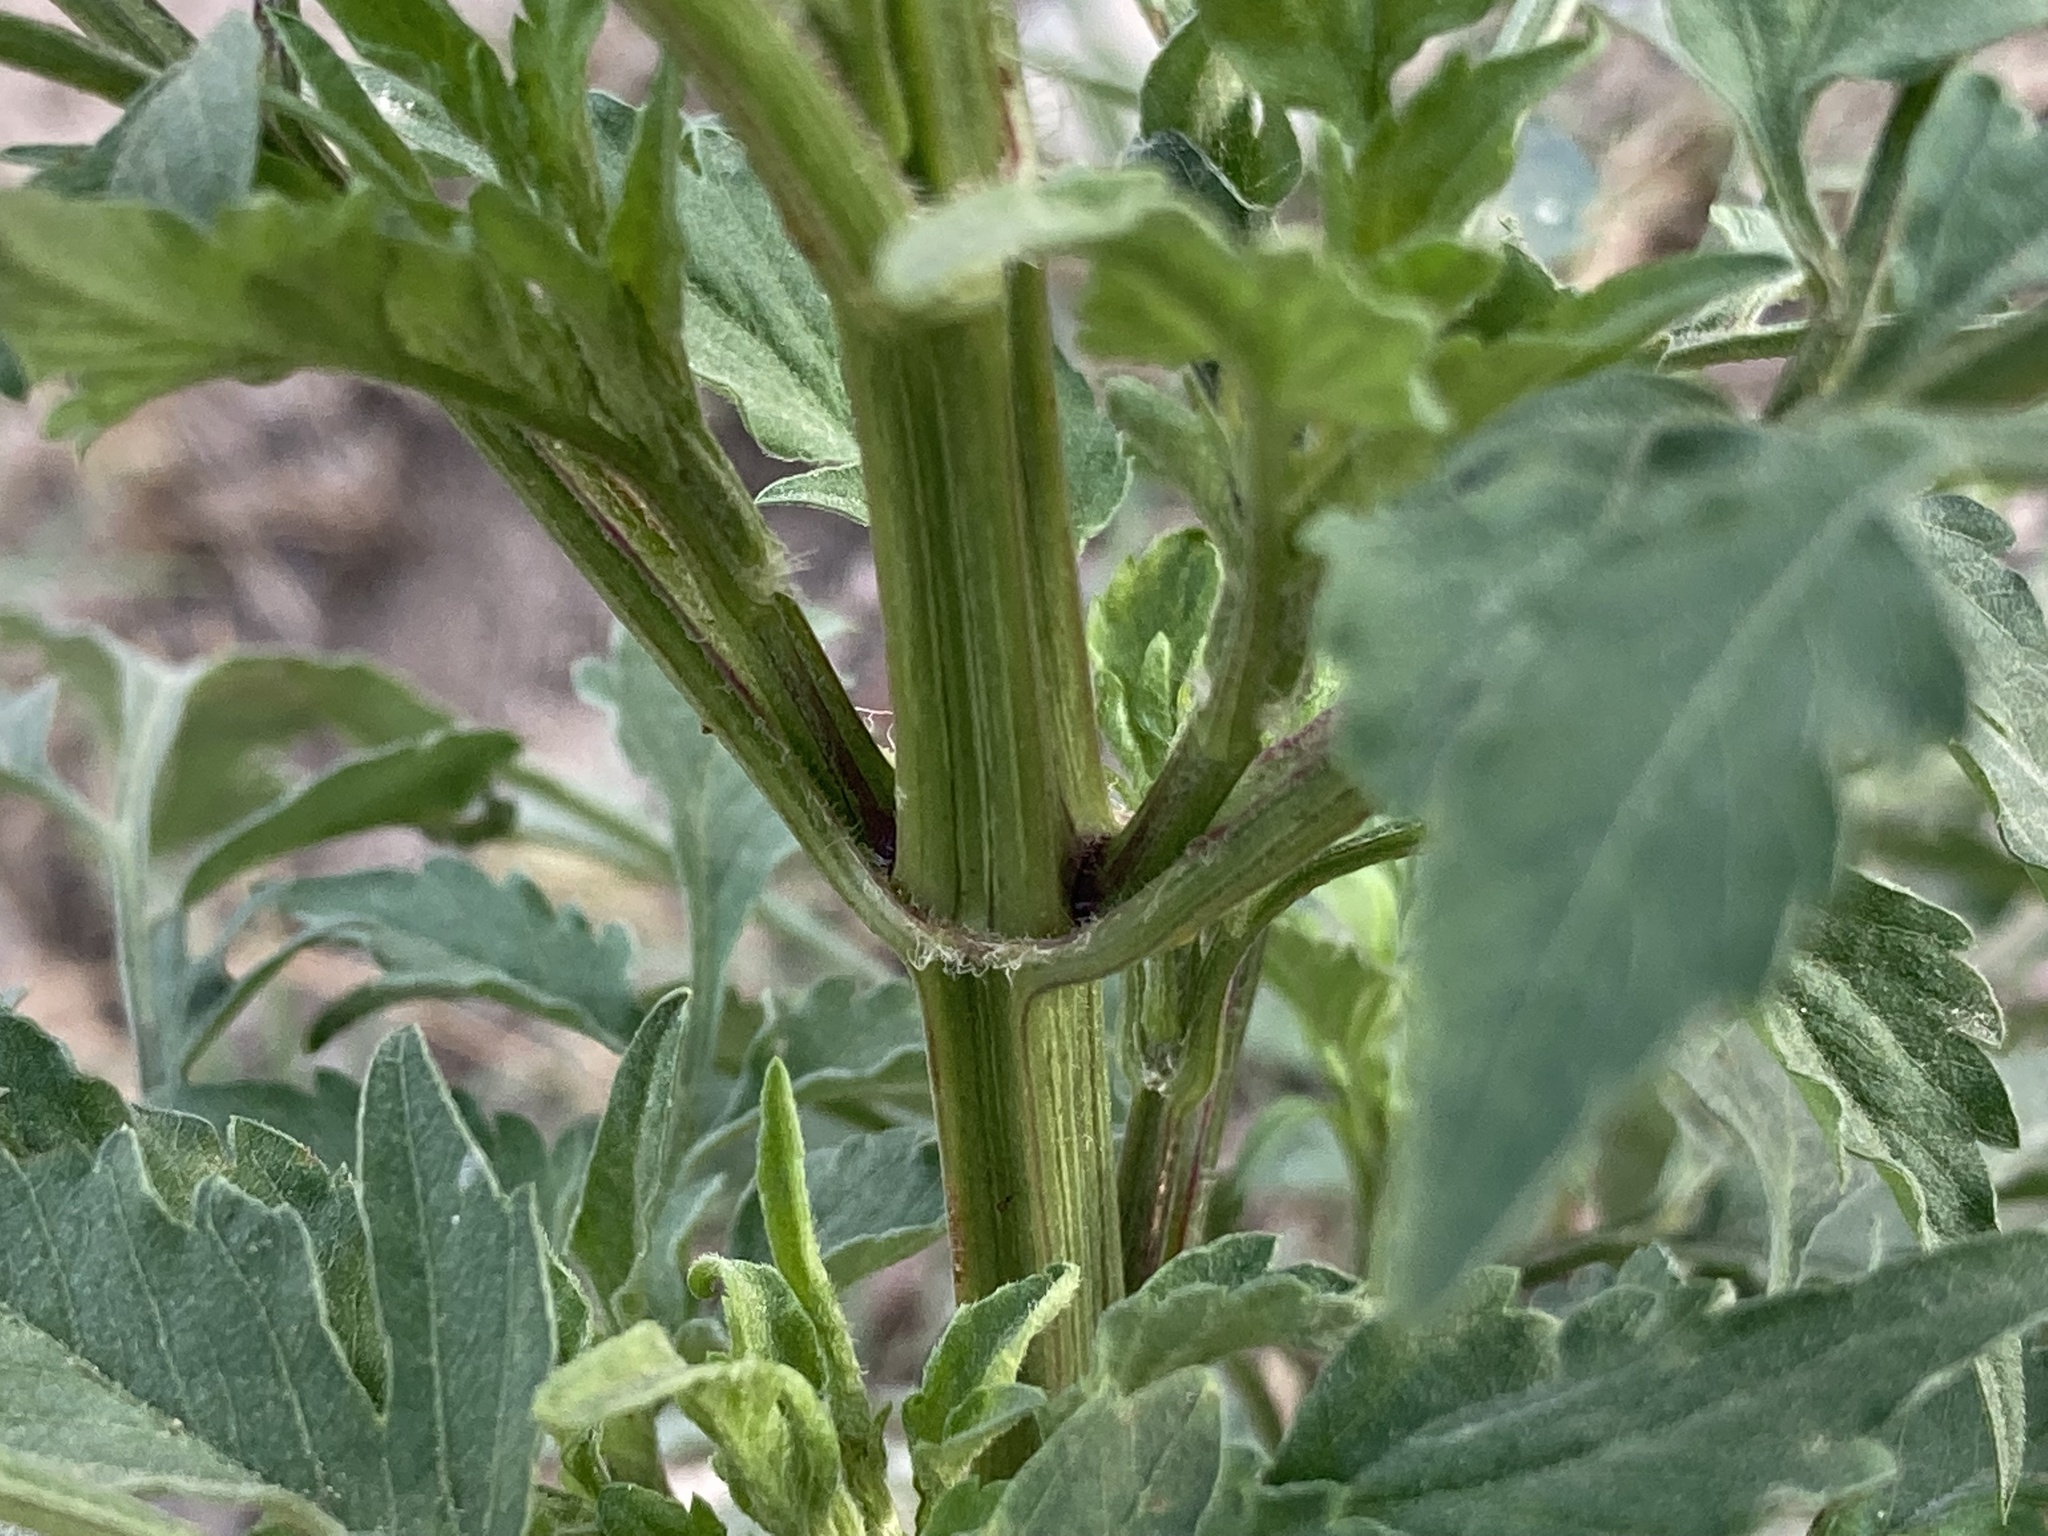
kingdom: Plantae
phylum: Tracheophyta
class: Magnoliopsida
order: Asterales
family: Asteraceae
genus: Bidens
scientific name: Bidens subalternans
